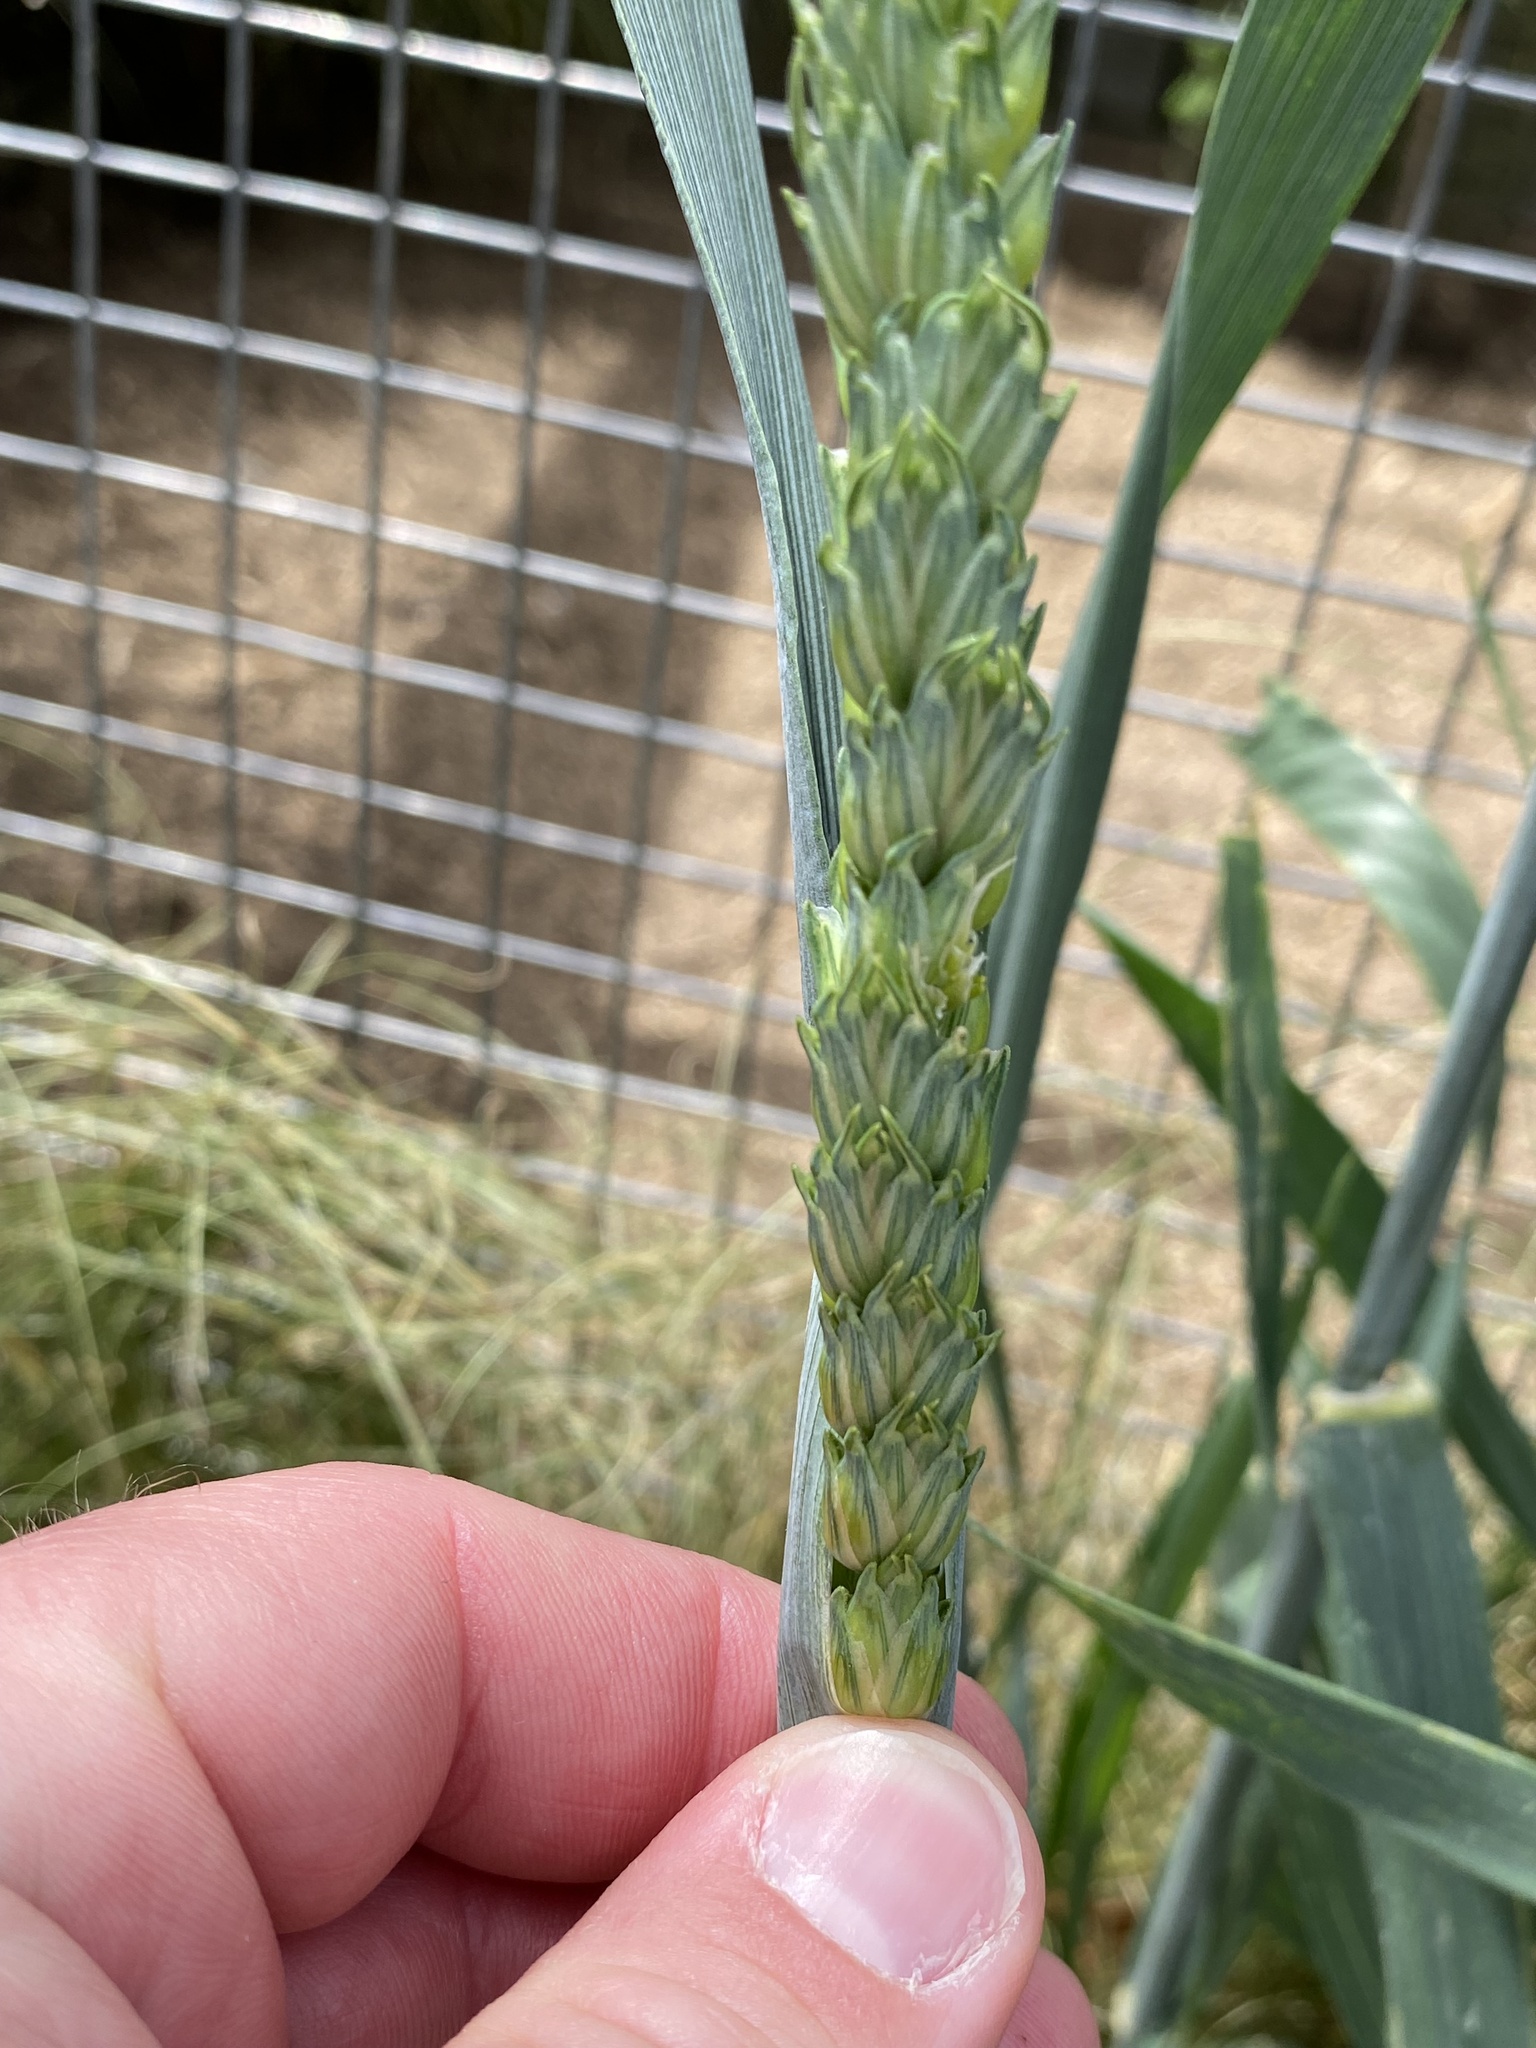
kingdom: Plantae
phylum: Tracheophyta
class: Liliopsida
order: Poales
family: Poaceae
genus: Triticum
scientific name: Triticum aestivum
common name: Common wheat
